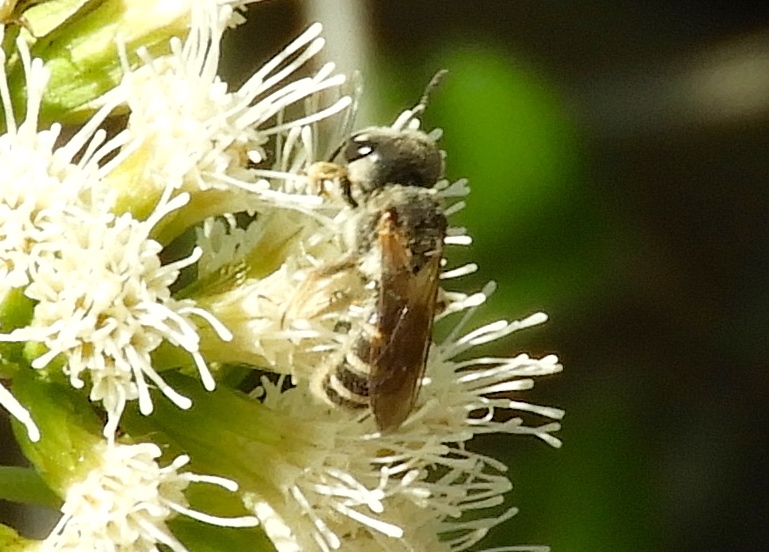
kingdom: Animalia
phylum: Arthropoda
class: Insecta
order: Hymenoptera
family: Halictidae
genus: Halictus
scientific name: Halictus ligatus
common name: Ligated furrow bee
